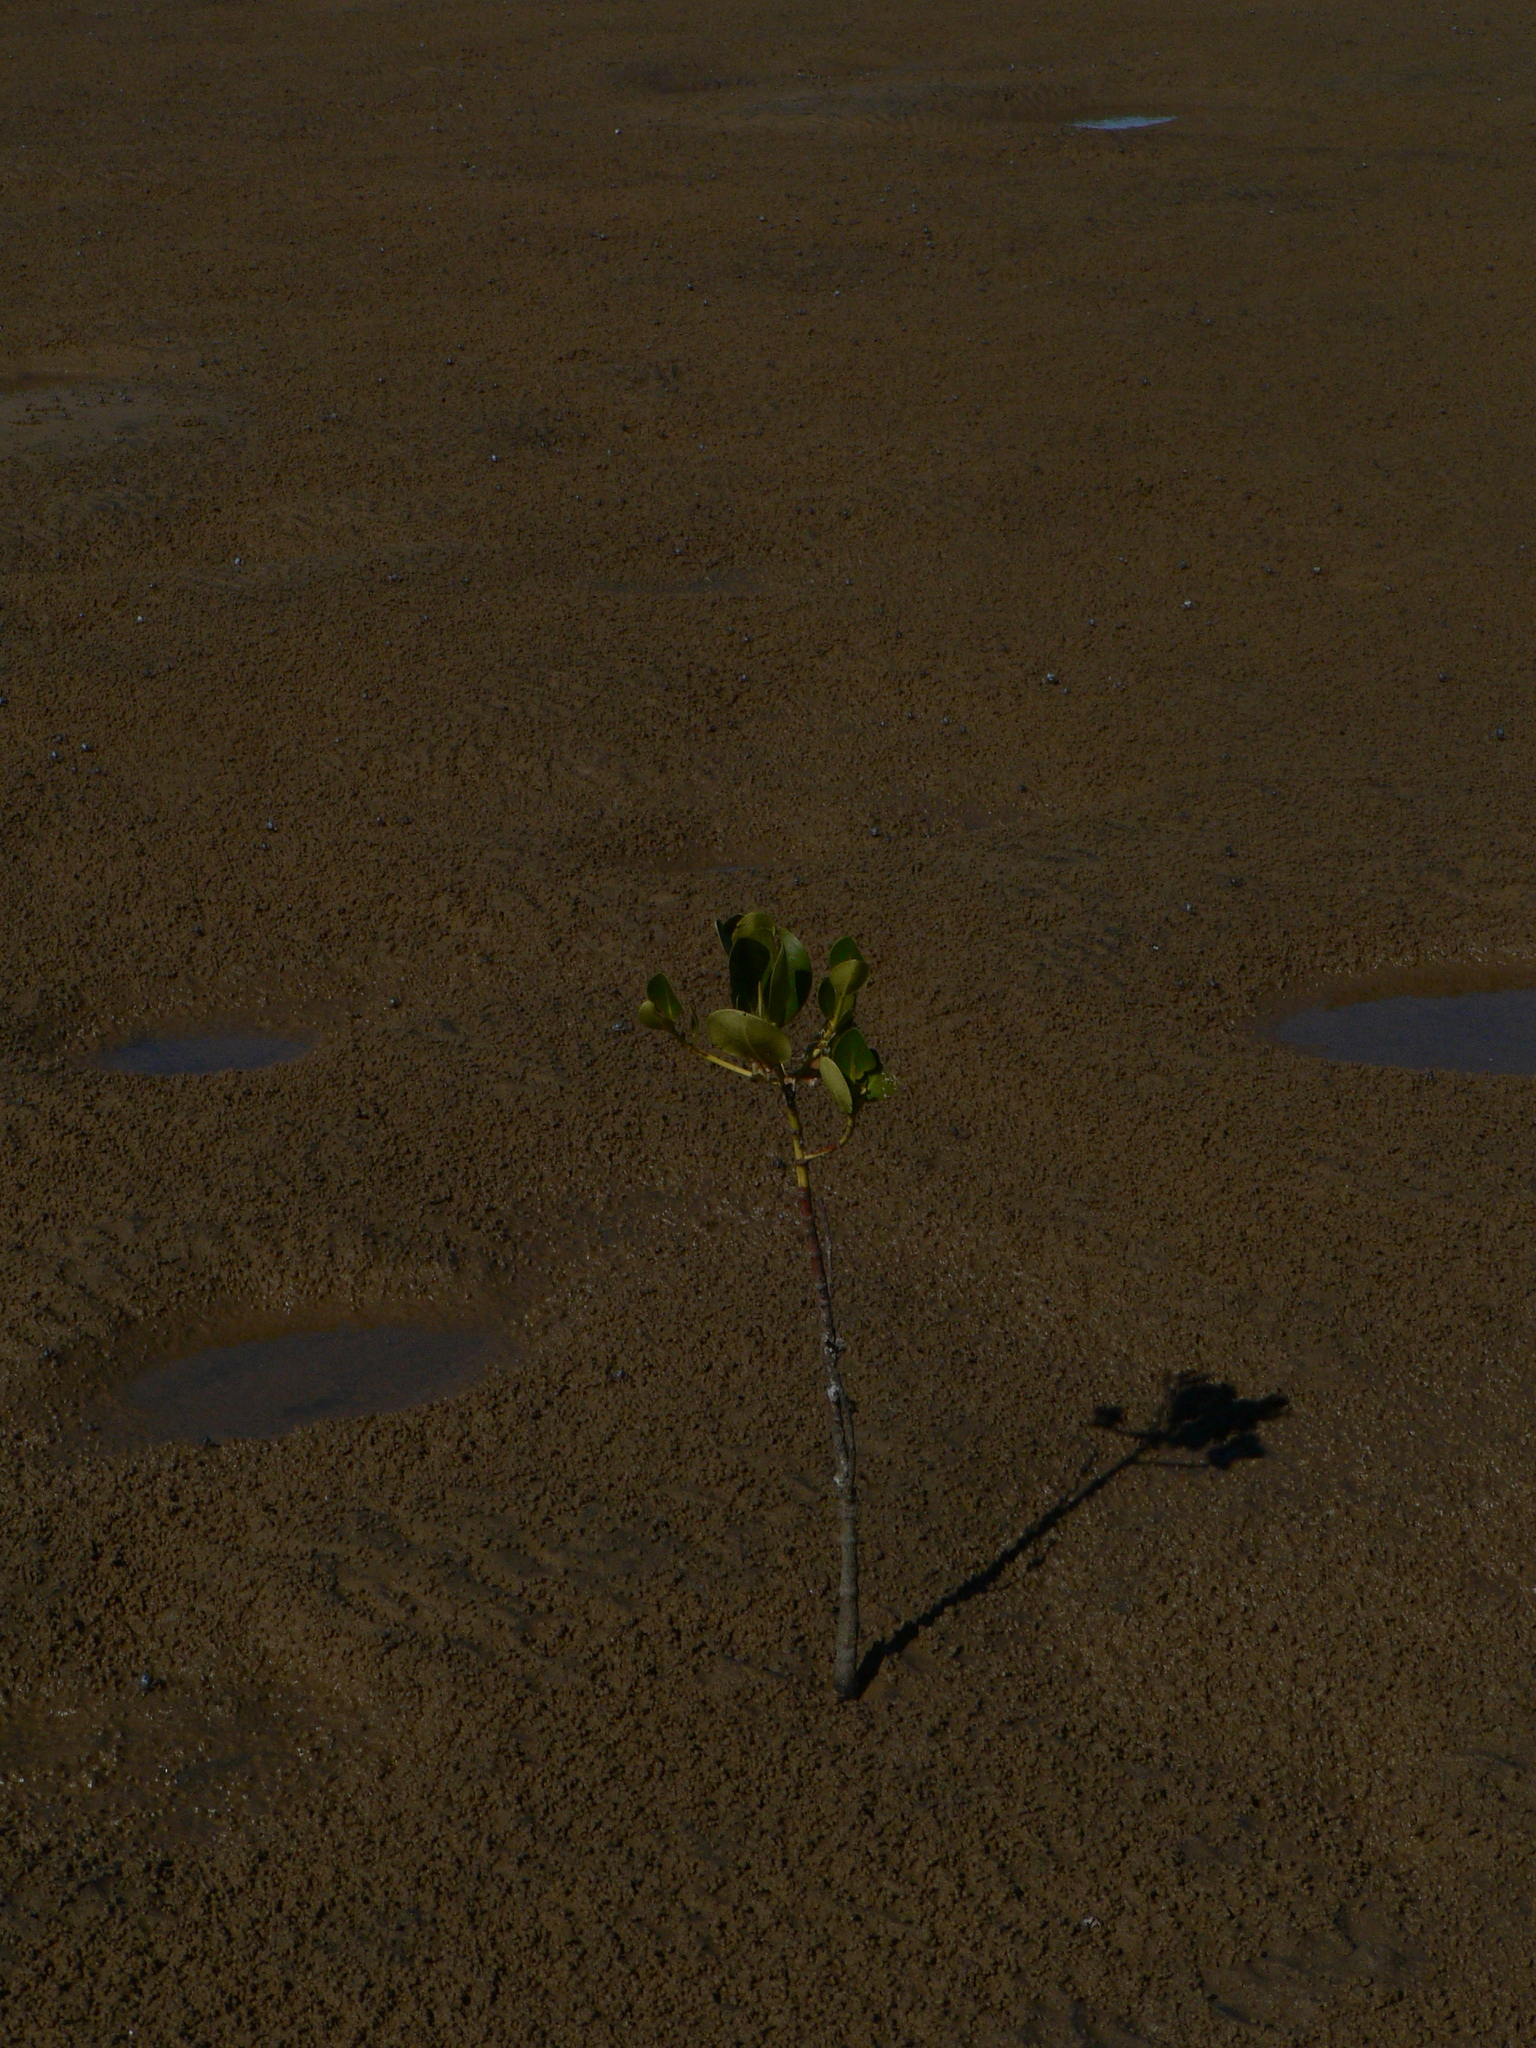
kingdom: Plantae
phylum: Tracheophyta
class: Magnoliopsida
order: Malpighiales
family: Rhizophoraceae
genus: Rhizophora
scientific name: Rhizophora stylosa
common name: Red mangrove
